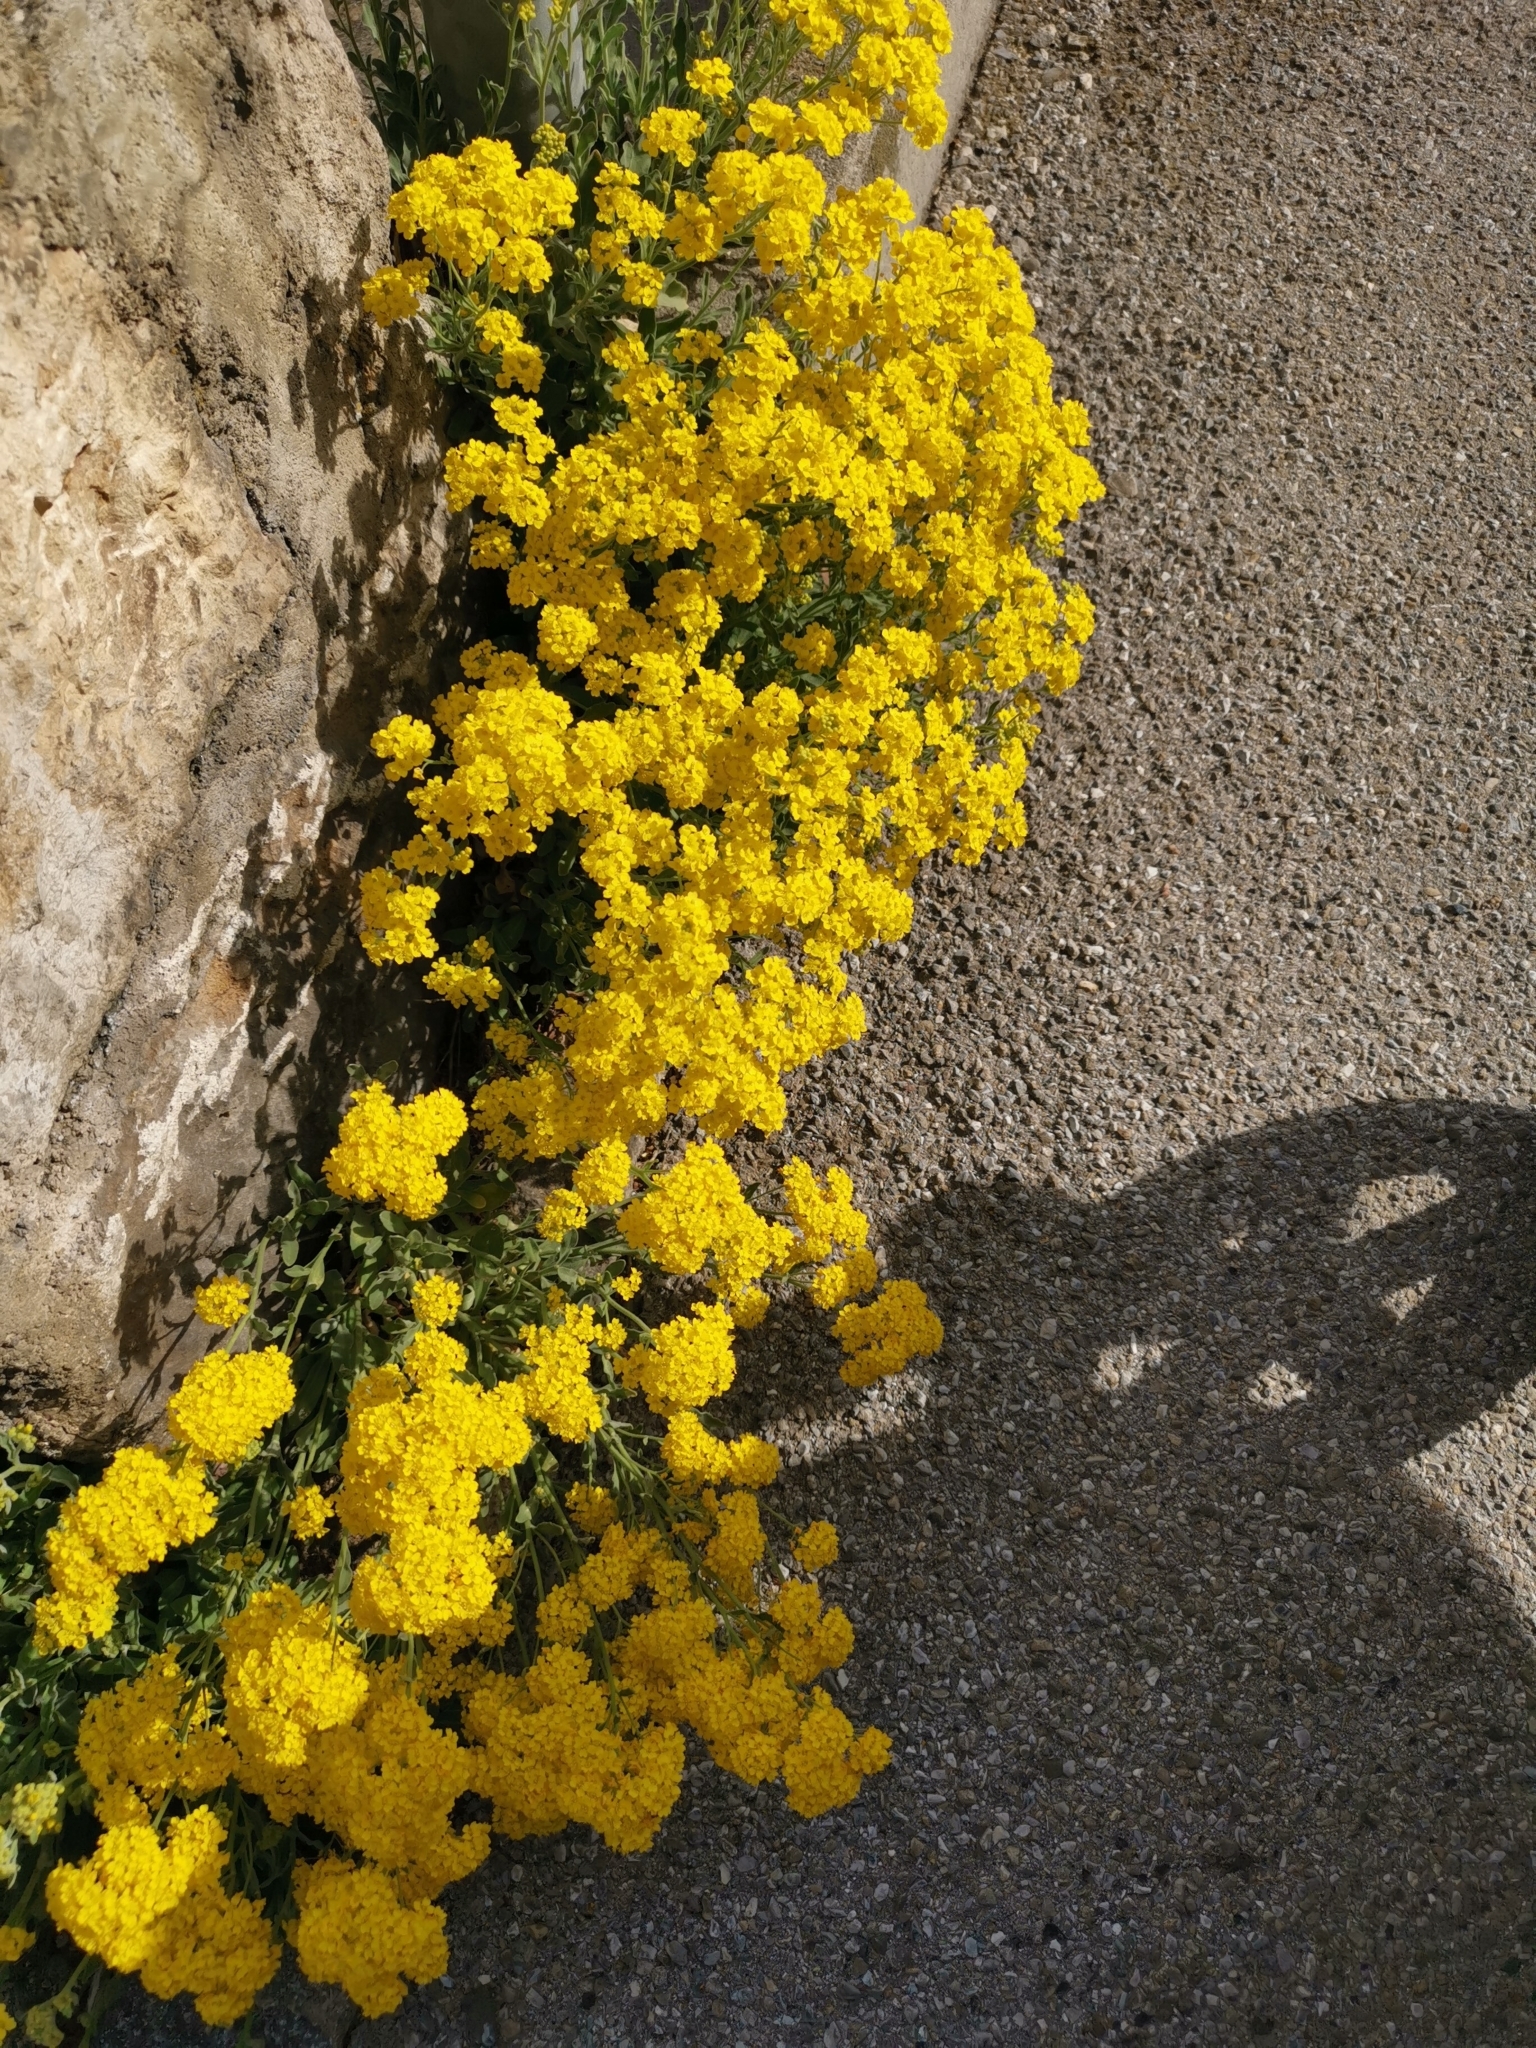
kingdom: Plantae
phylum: Tracheophyta
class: Magnoliopsida
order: Brassicales
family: Brassicaceae
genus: Aurinia
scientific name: Aurinia saxatilis
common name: Golden-tuft alyssum
